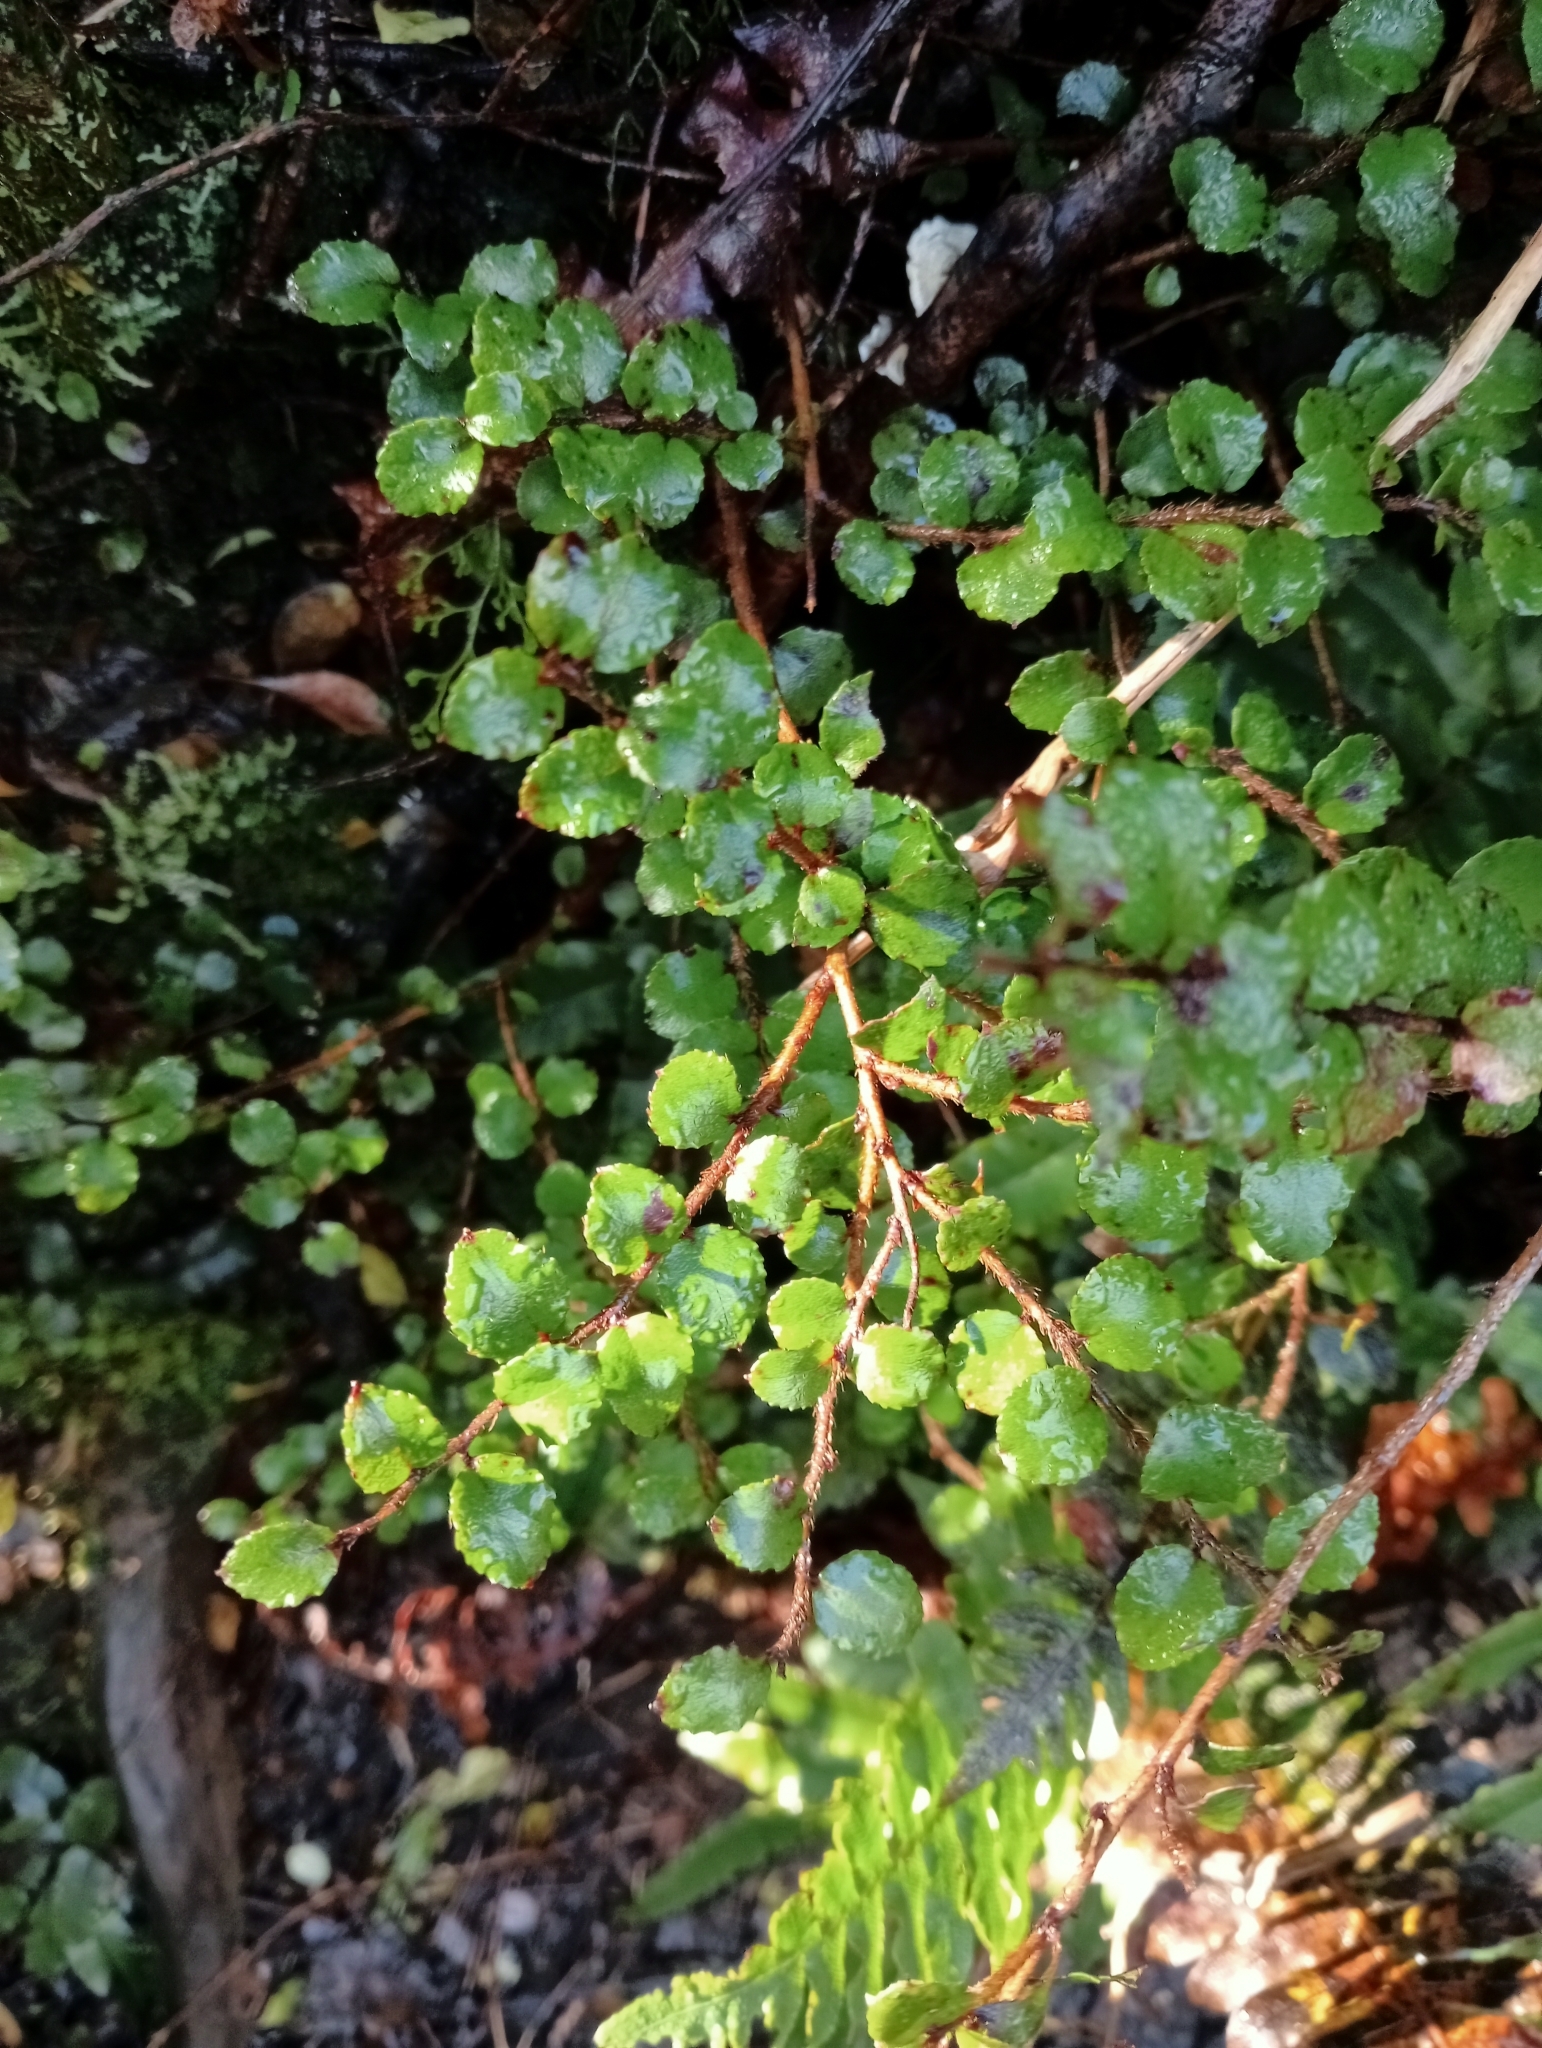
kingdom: Plantae
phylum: Tracheophyta
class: Magnoliopsida
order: Ericales
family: Ericaceae
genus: Gaultheria
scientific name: Gaultheria antipoda
